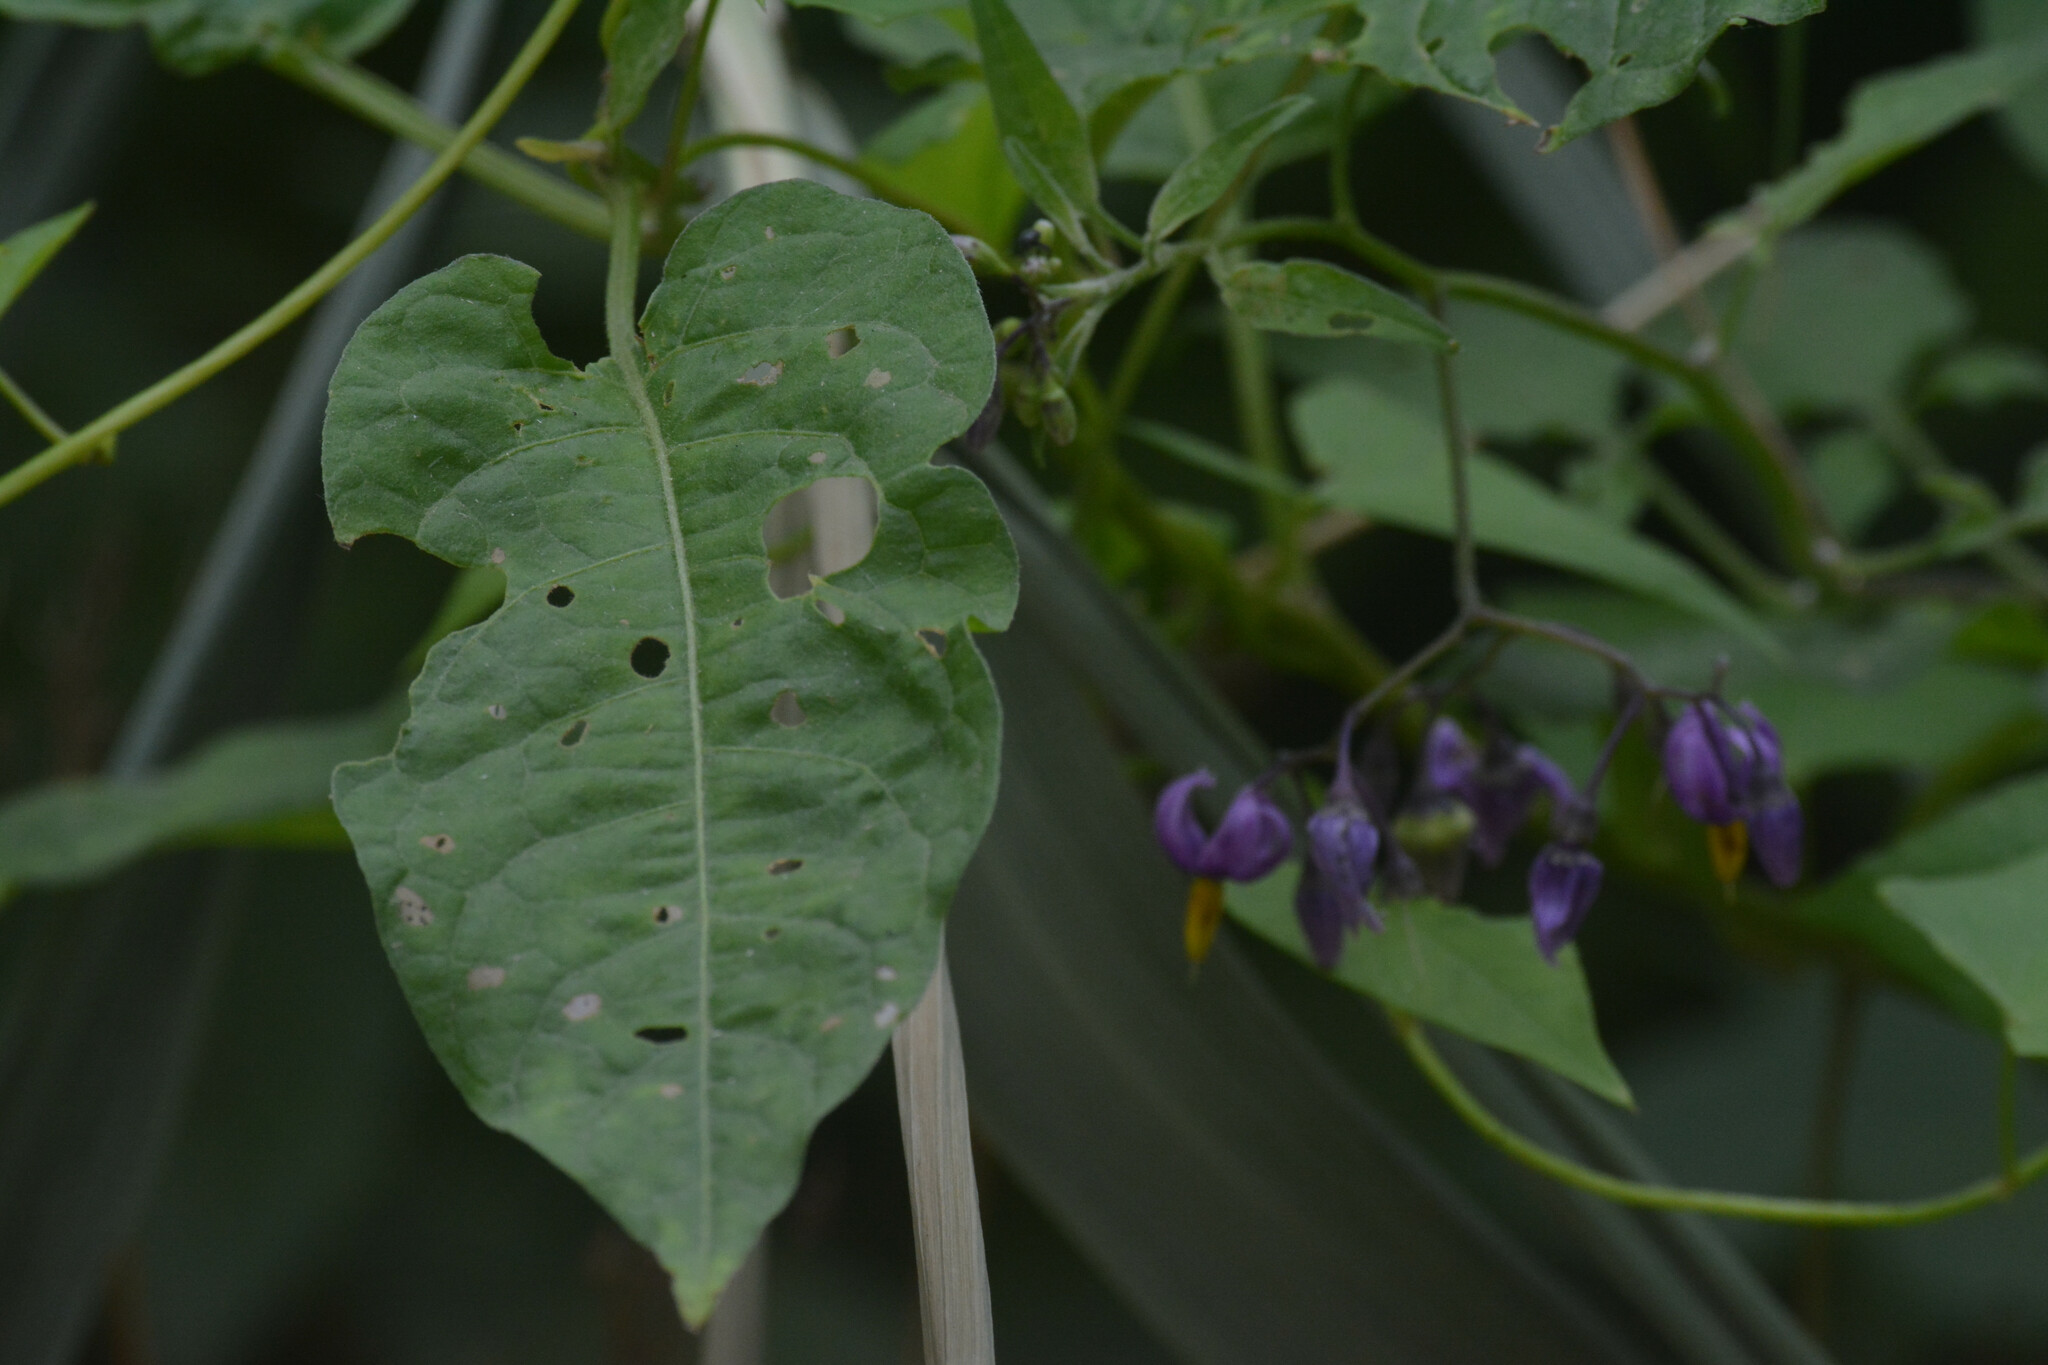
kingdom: Plantae
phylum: Tracheophyta
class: Magnoliopsida
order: Solanales
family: Solanaceae
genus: Solanum
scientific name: Solanum dulcamara
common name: Climbing nightshade
